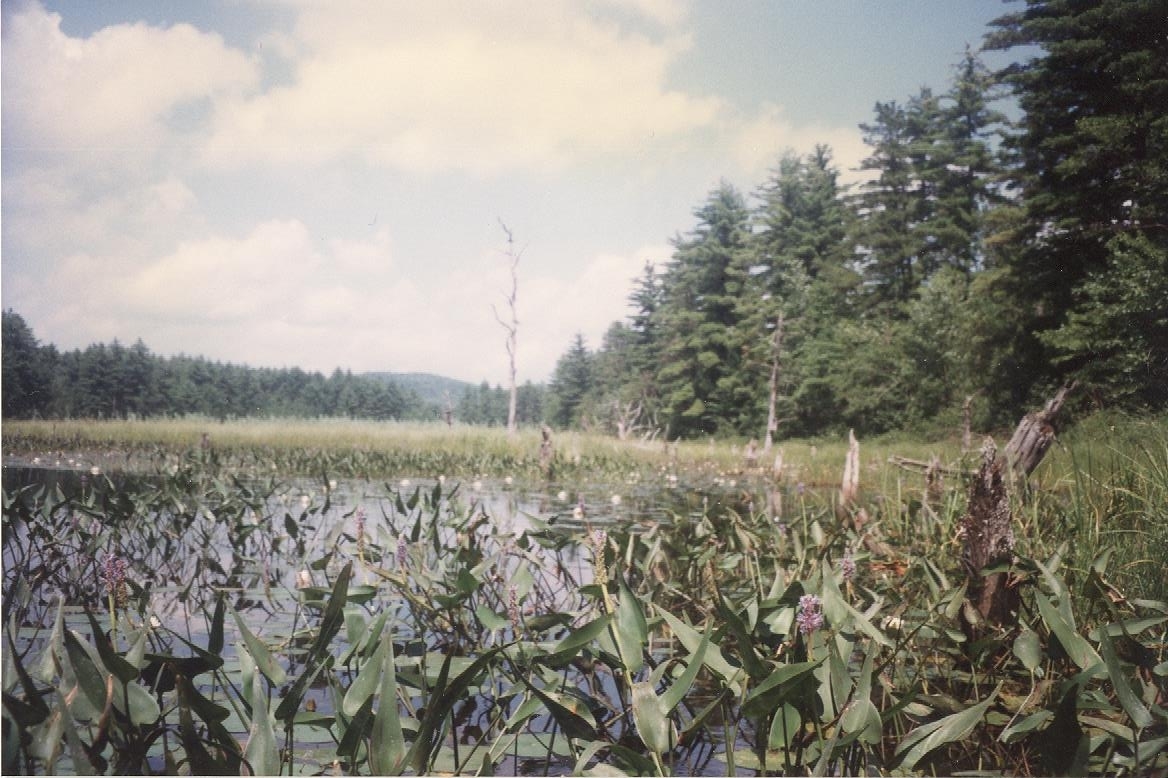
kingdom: Plantae
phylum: Tracheophyta
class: Liliopsida
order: Commelinales
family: Pontederiaceae
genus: Pontederia
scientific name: Pontederia cordata
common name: Pickerelweed
